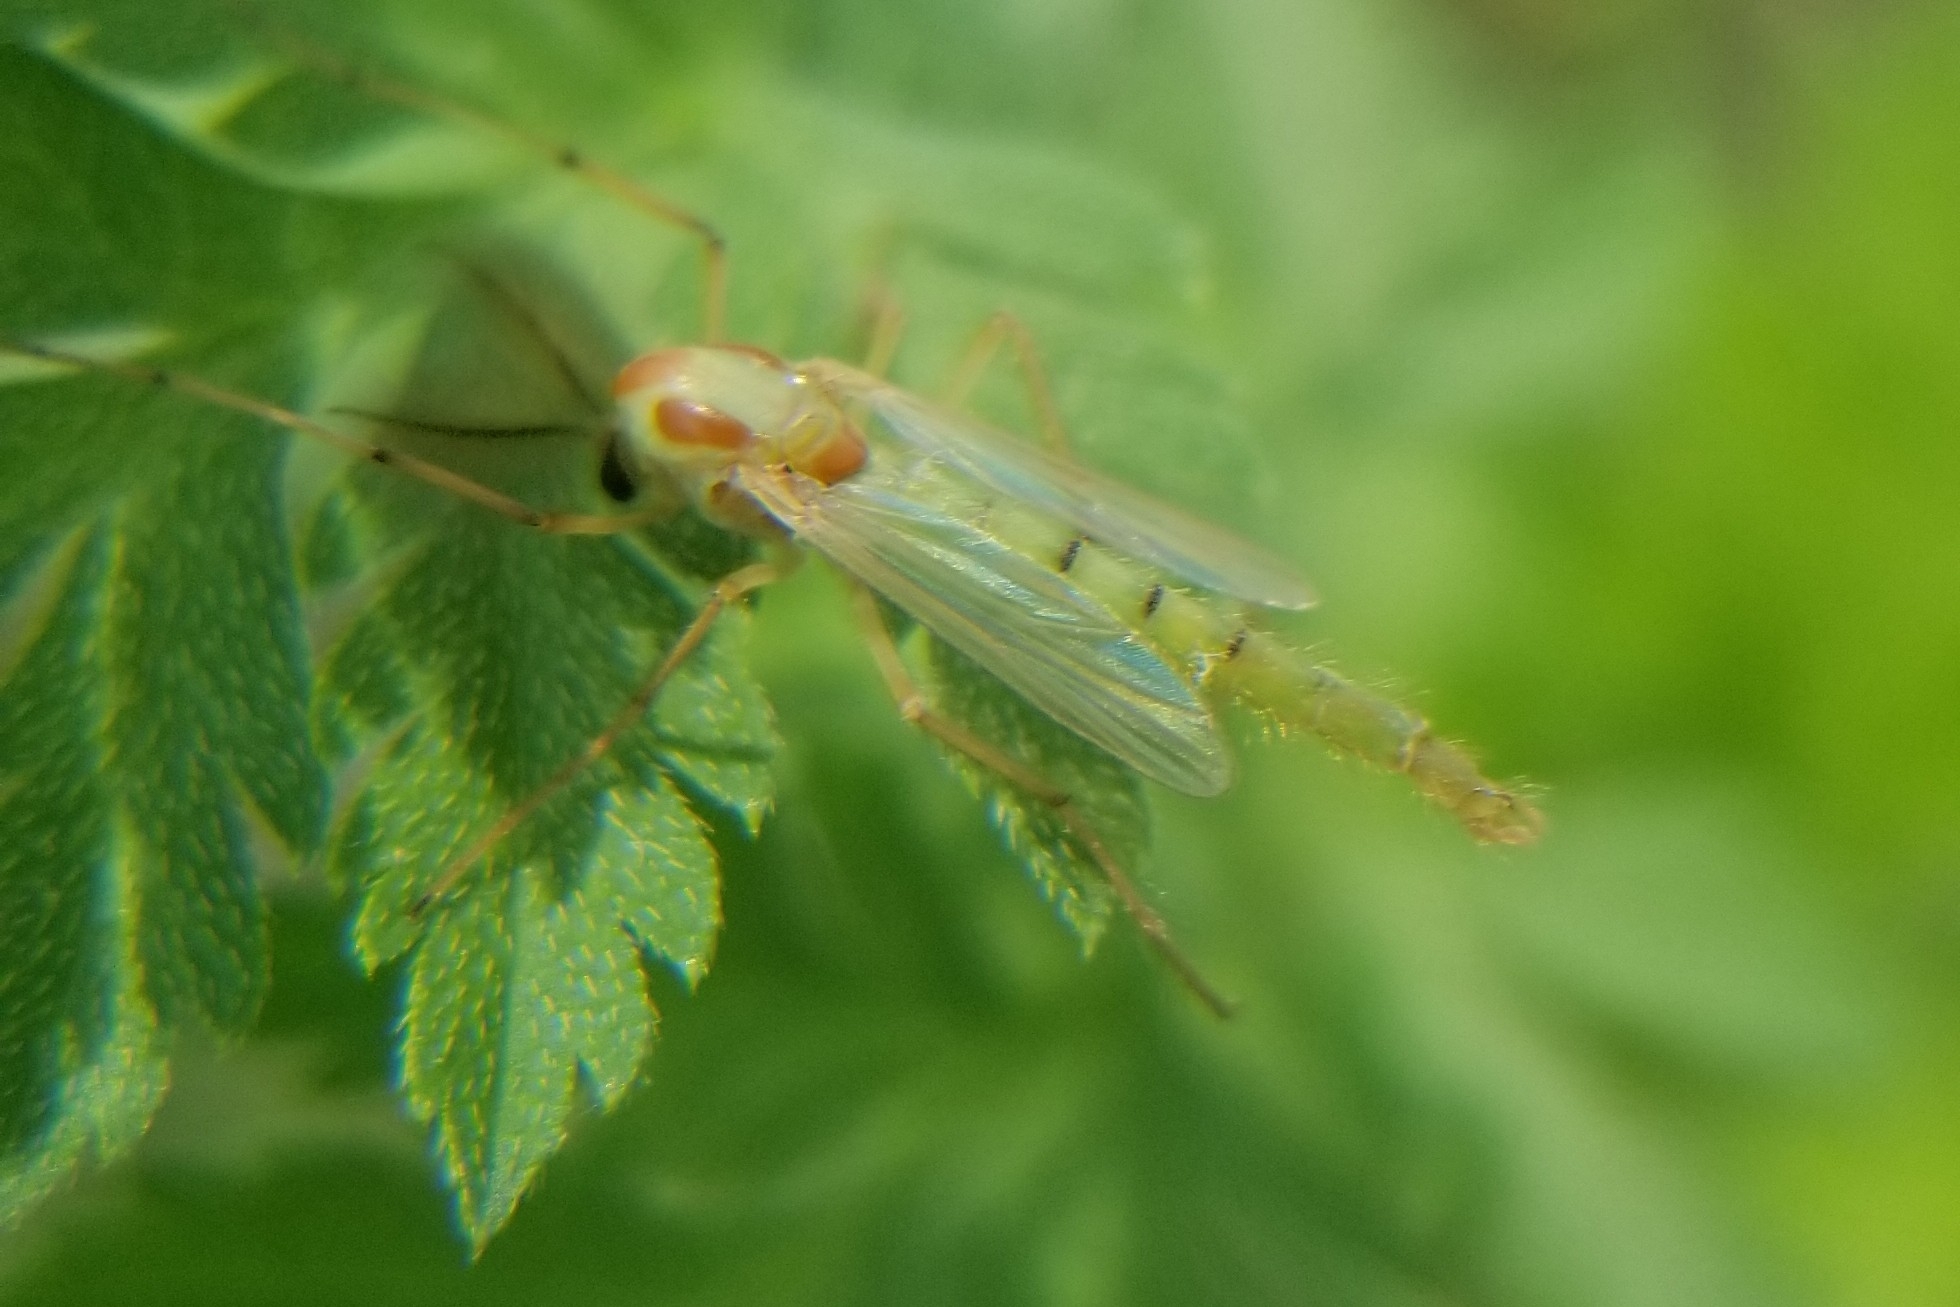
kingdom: Animalia
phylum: Arthropoda
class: Insecta
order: Diptera
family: Chironomidae
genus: Axarus
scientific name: Axarus
